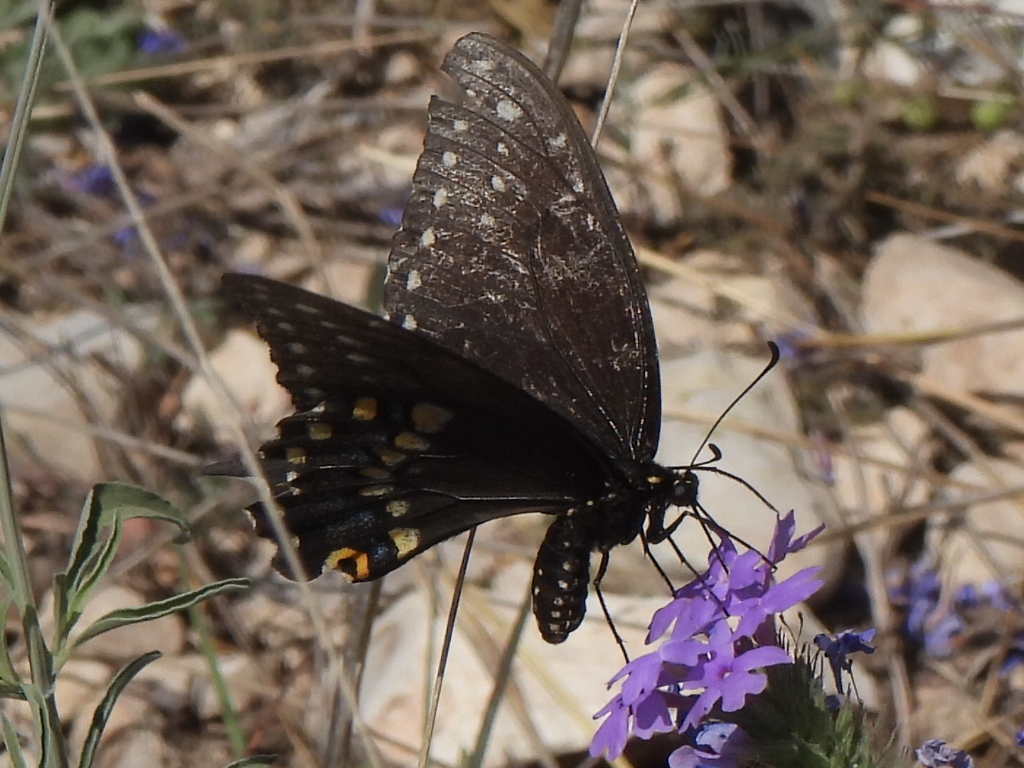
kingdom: Animalia
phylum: Arthropoda
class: Insecta
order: Lepidoptera
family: Papilionidae
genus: Papilio
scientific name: Papilio polyxenes
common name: Black swallowtail
